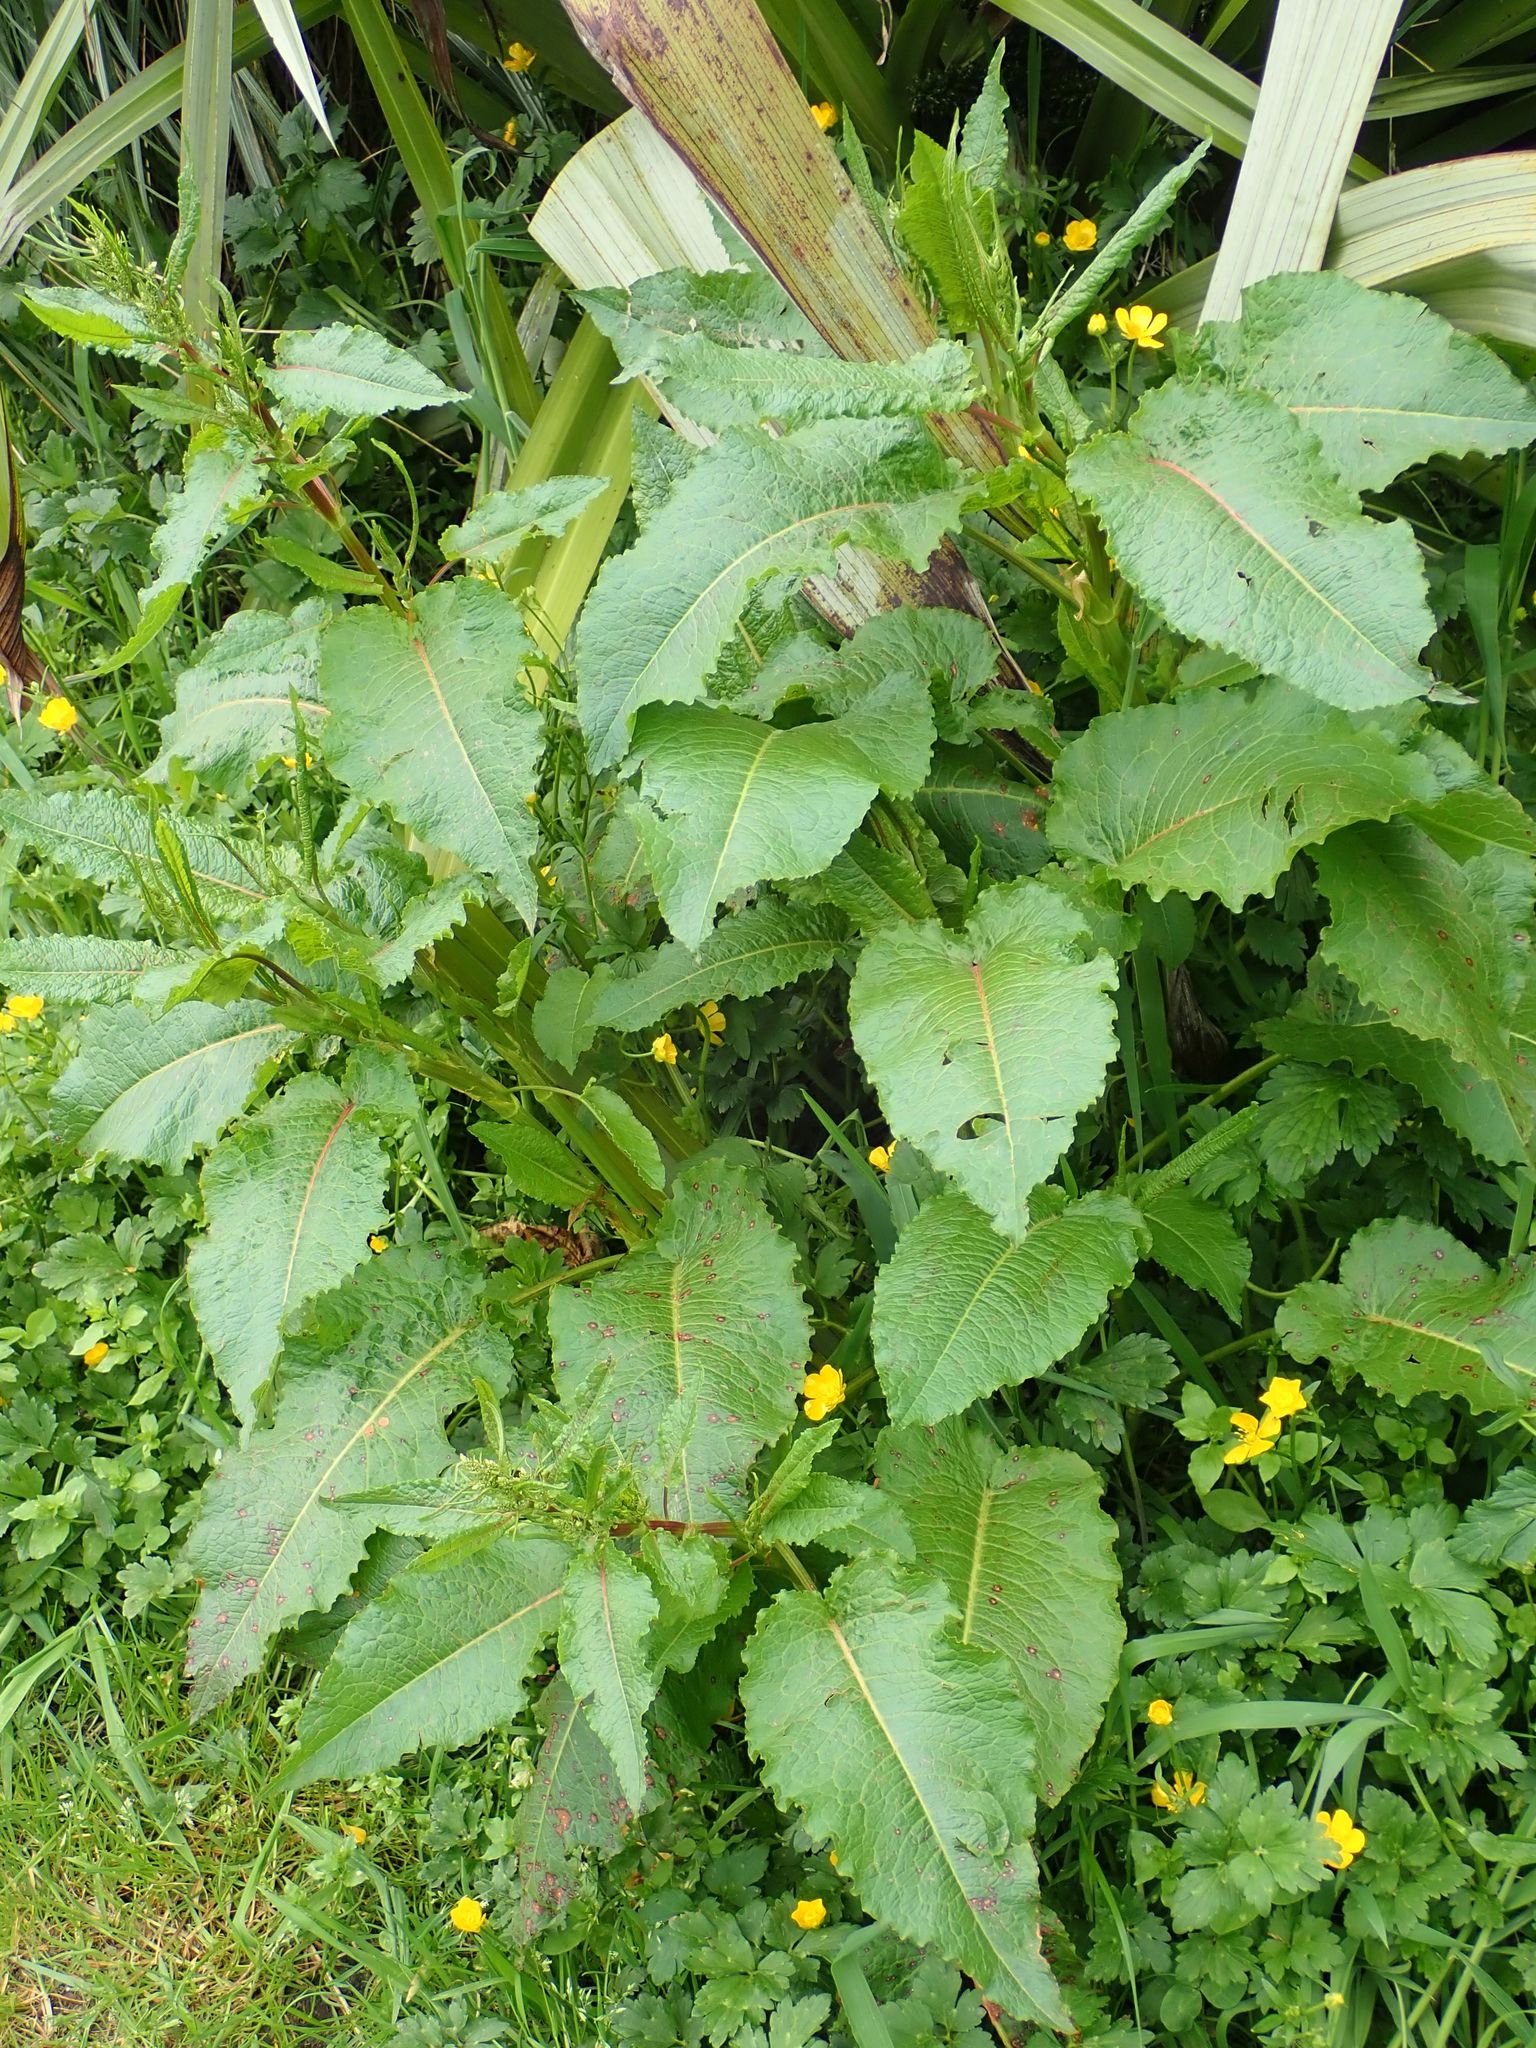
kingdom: Plantae
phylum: Tracheophyta
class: Magnoliopsida
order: Caryophyllales
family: Polygonaceae
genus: Rumex
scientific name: Rumex obtusifolius
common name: Bitter dock
